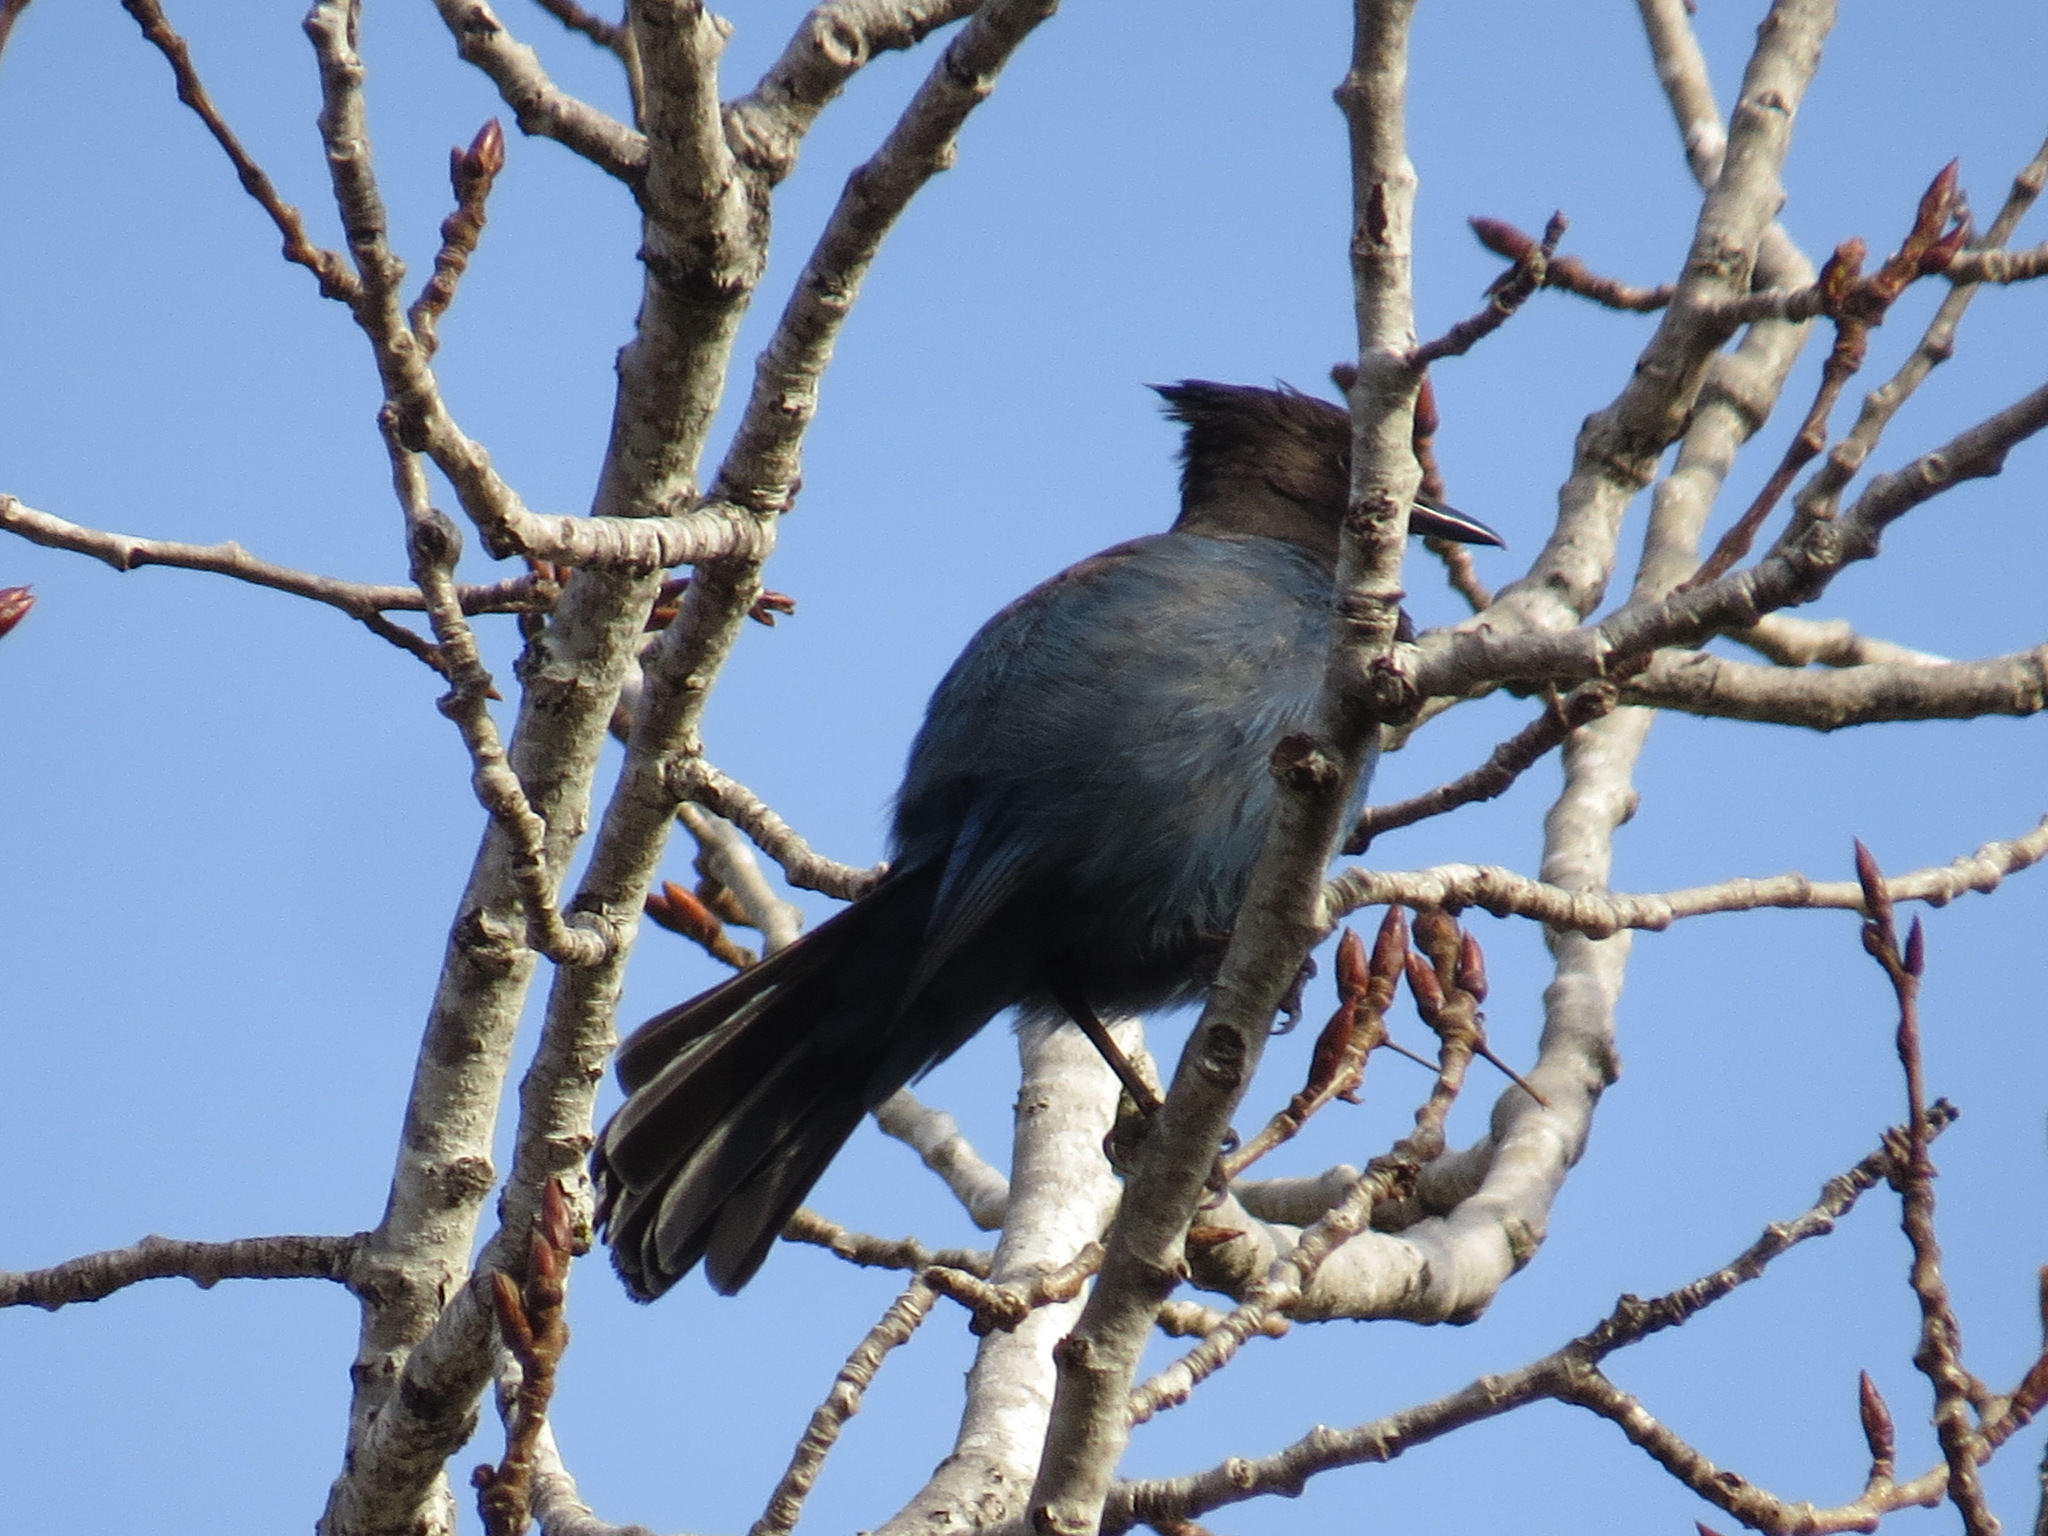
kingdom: Animalia
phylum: Chordata
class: Aves
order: Passeriformes
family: Corvidae
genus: Cyanocitta
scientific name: Cyanocitta stelleri
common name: Steller's jay
